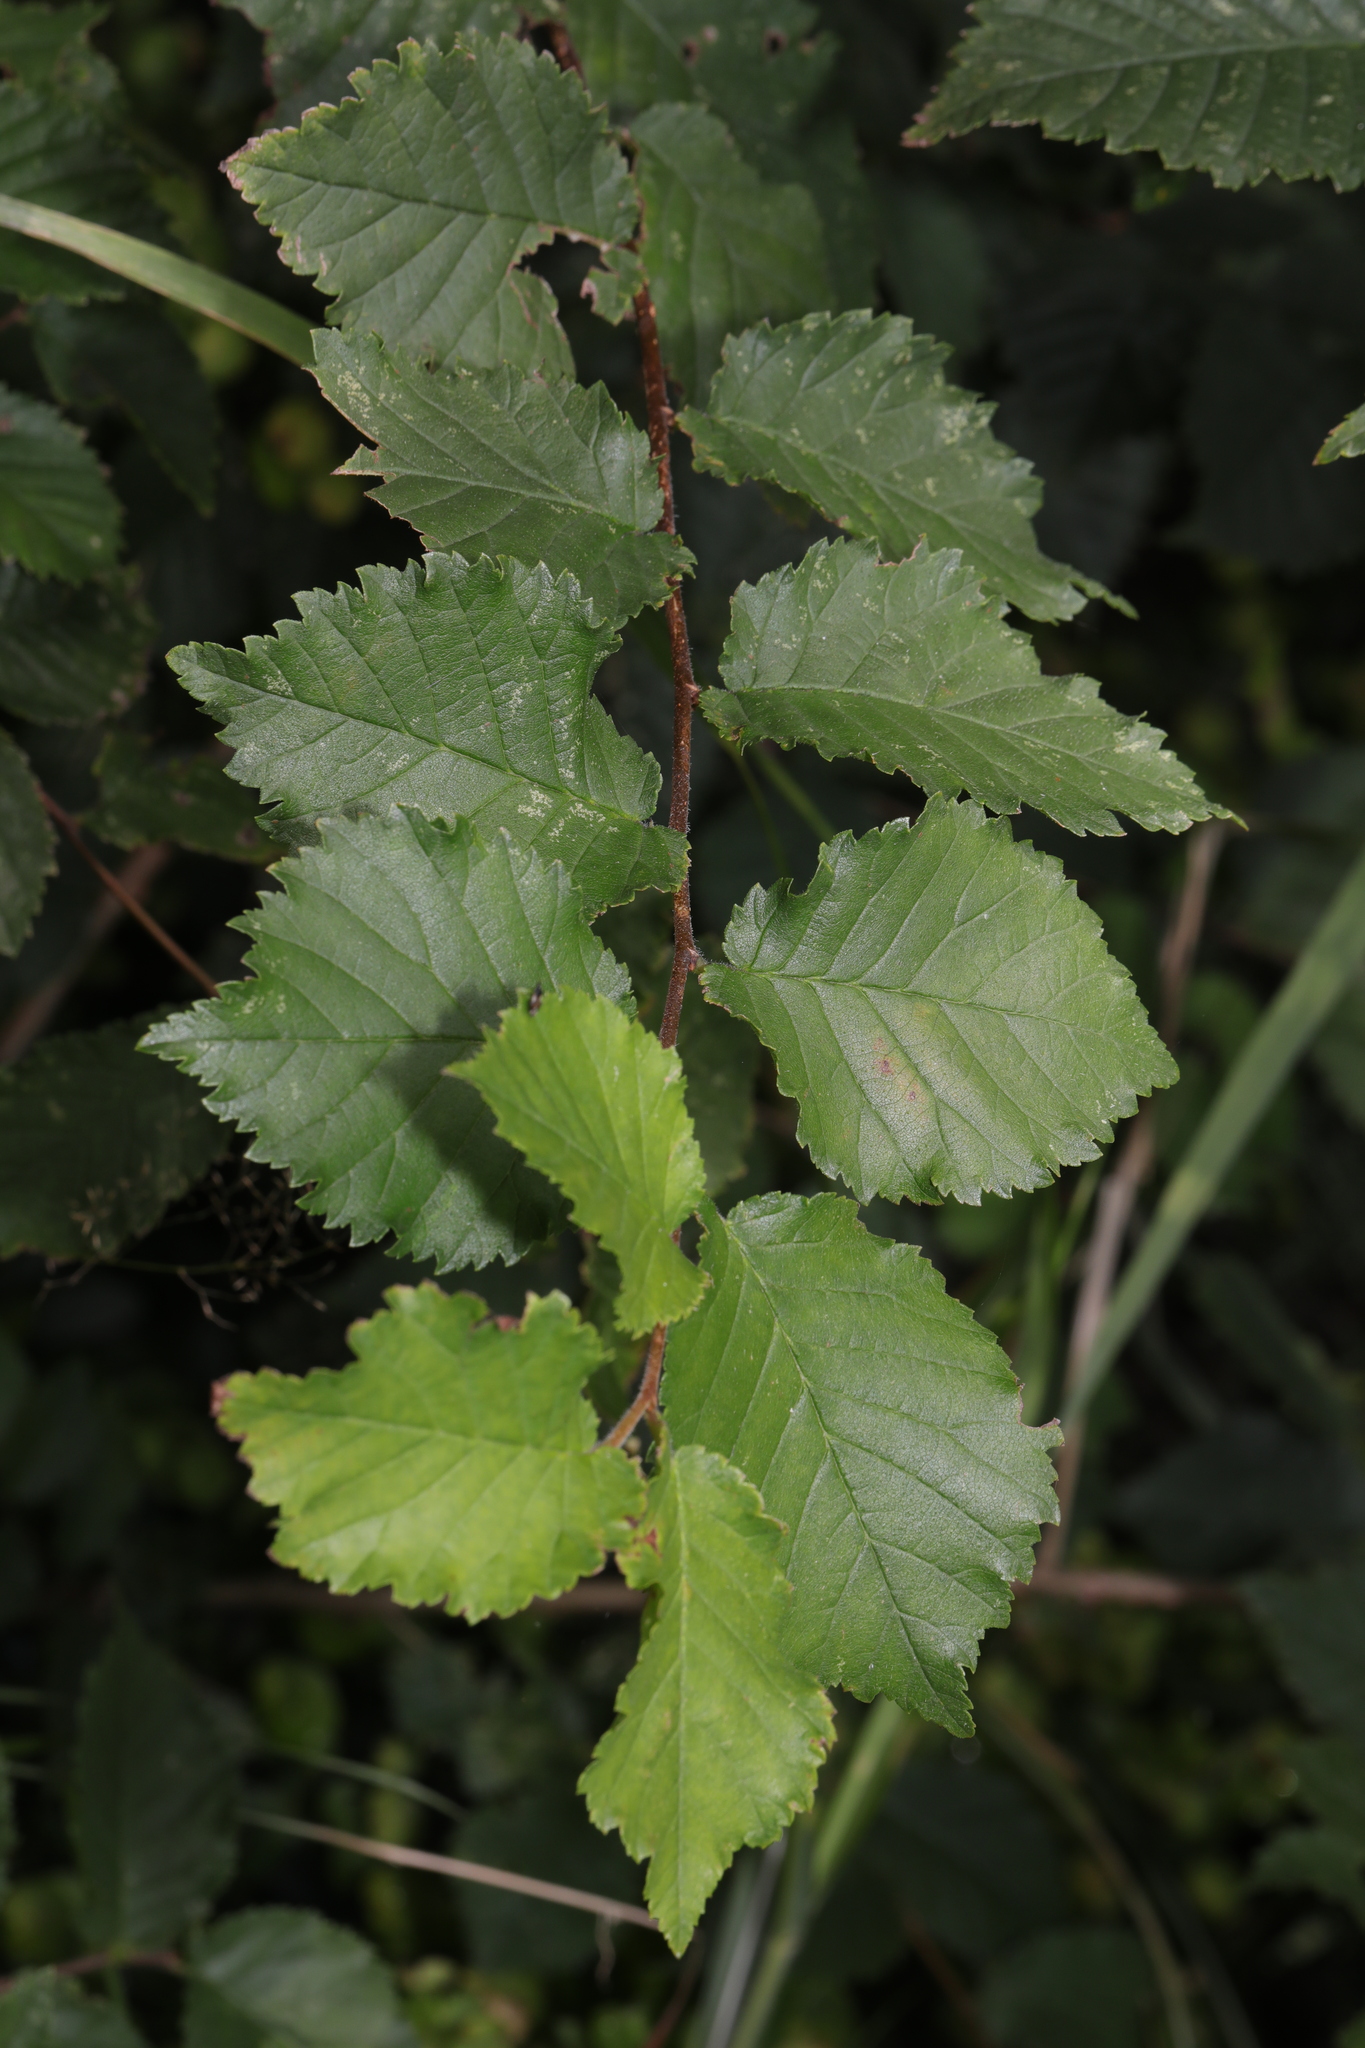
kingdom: Plantae
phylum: Tracheophyta
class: Magnoliopsida
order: Rosales
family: Ulmaceae
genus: Ulmus
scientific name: Ulmus minor
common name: Small-leaved elm
